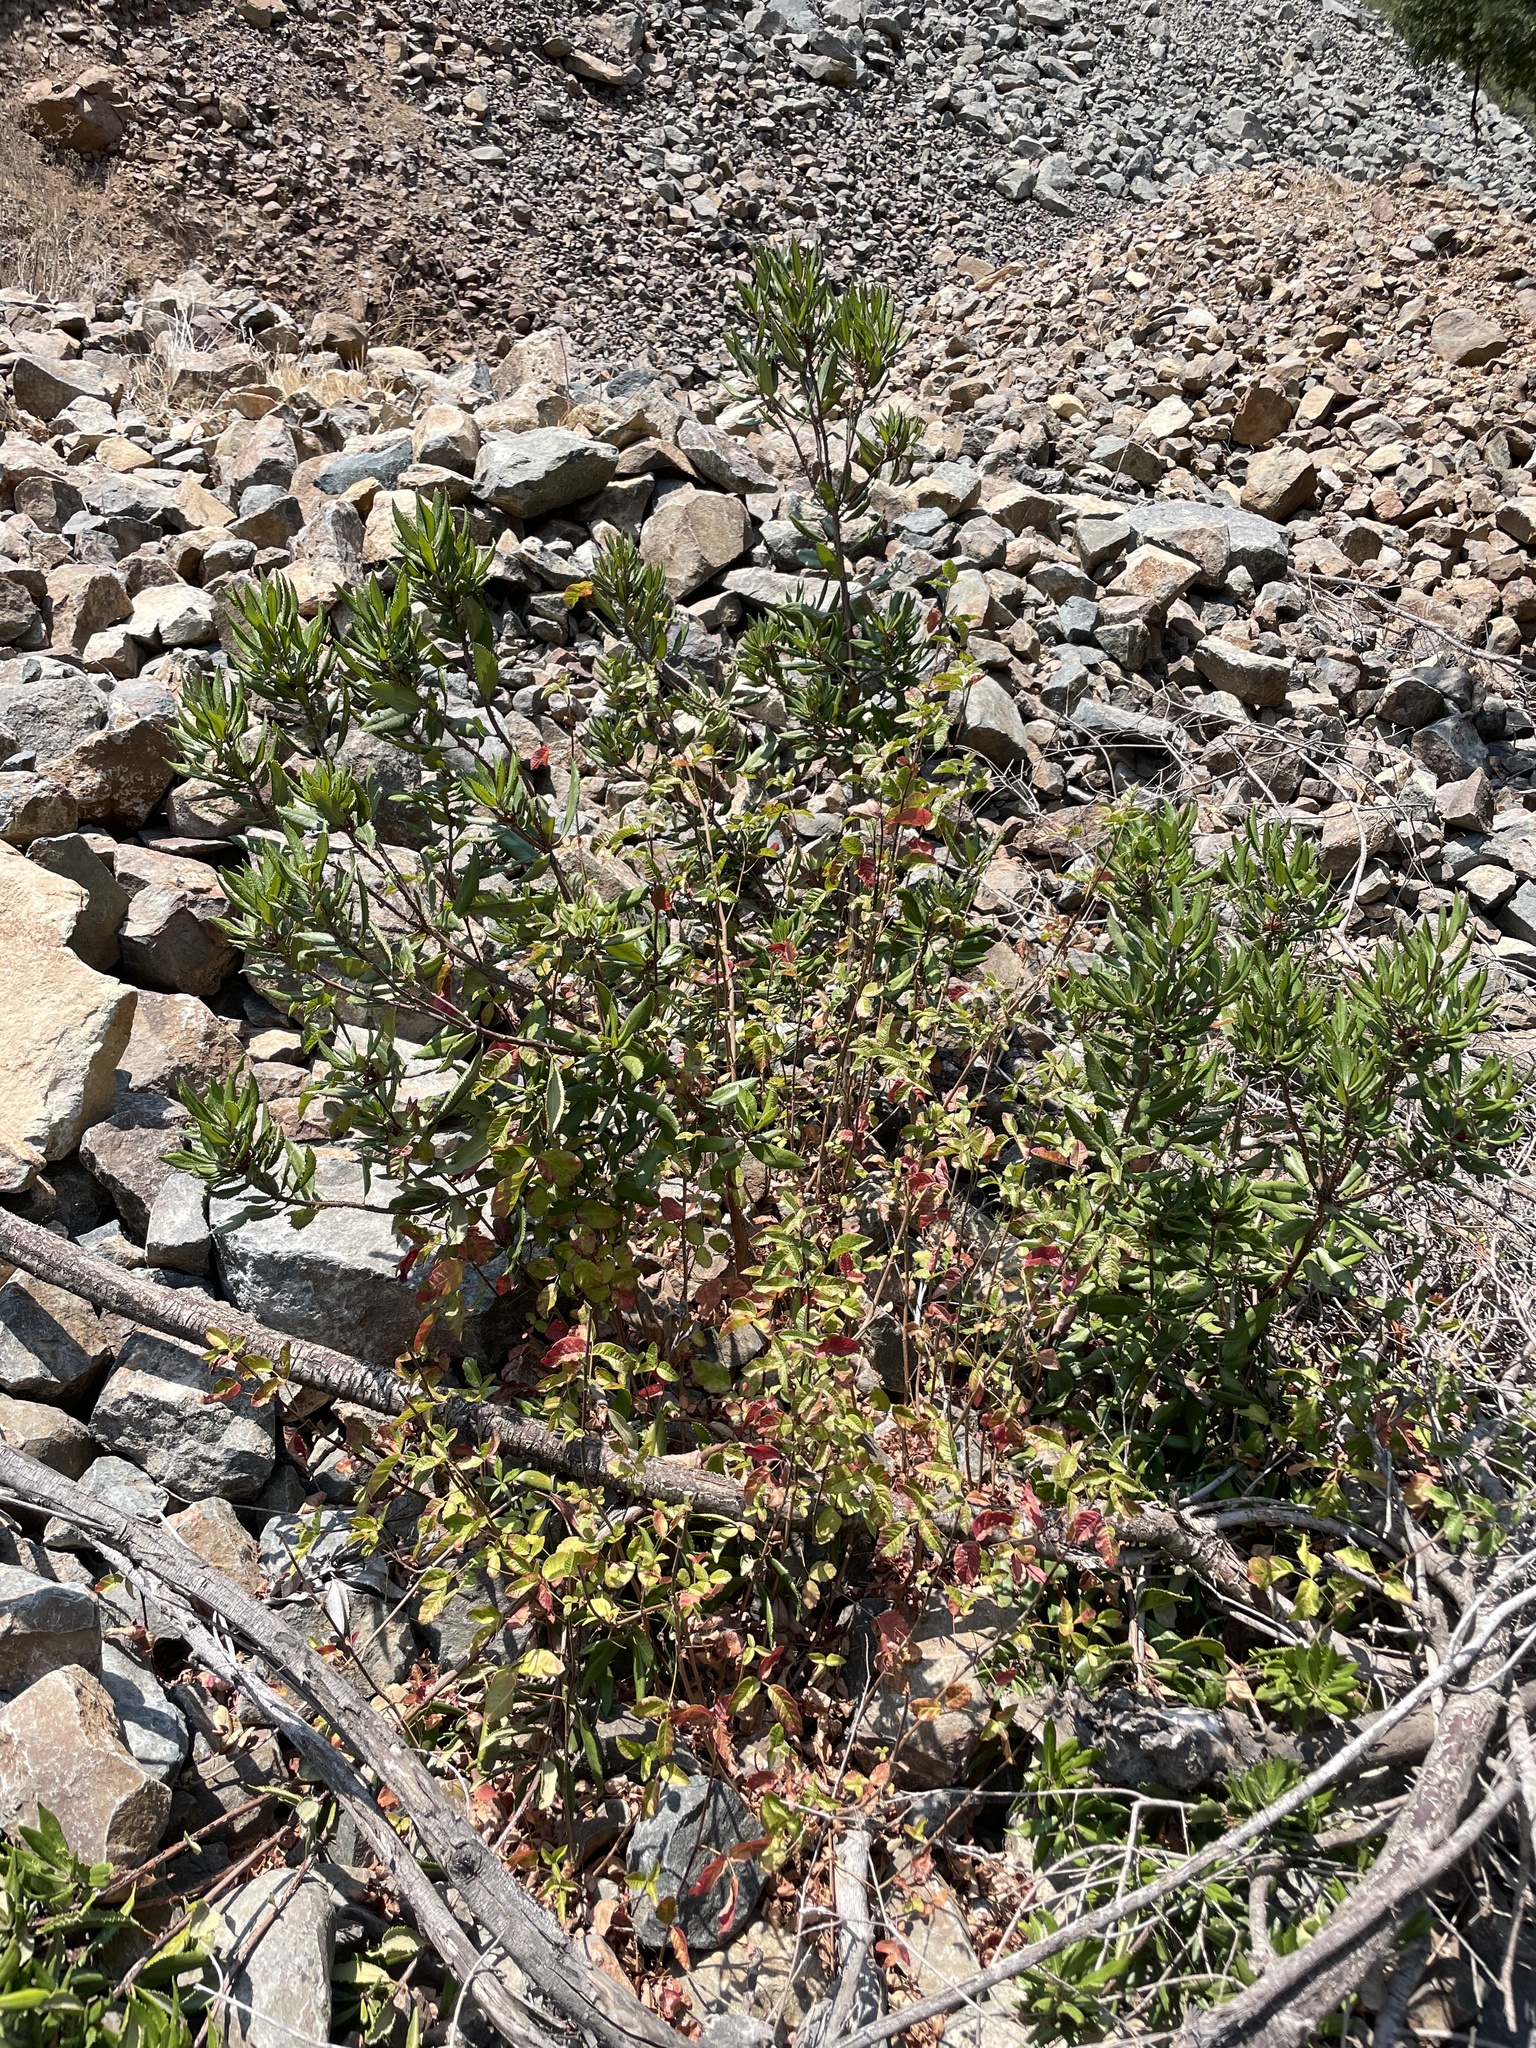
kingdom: Plantae
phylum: Tracheophyta
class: Magnoliopsida
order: Ericales
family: Ericaceae
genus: Comarostaphylis
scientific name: Comarostaphylis diversifolia
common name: Summer-holly
